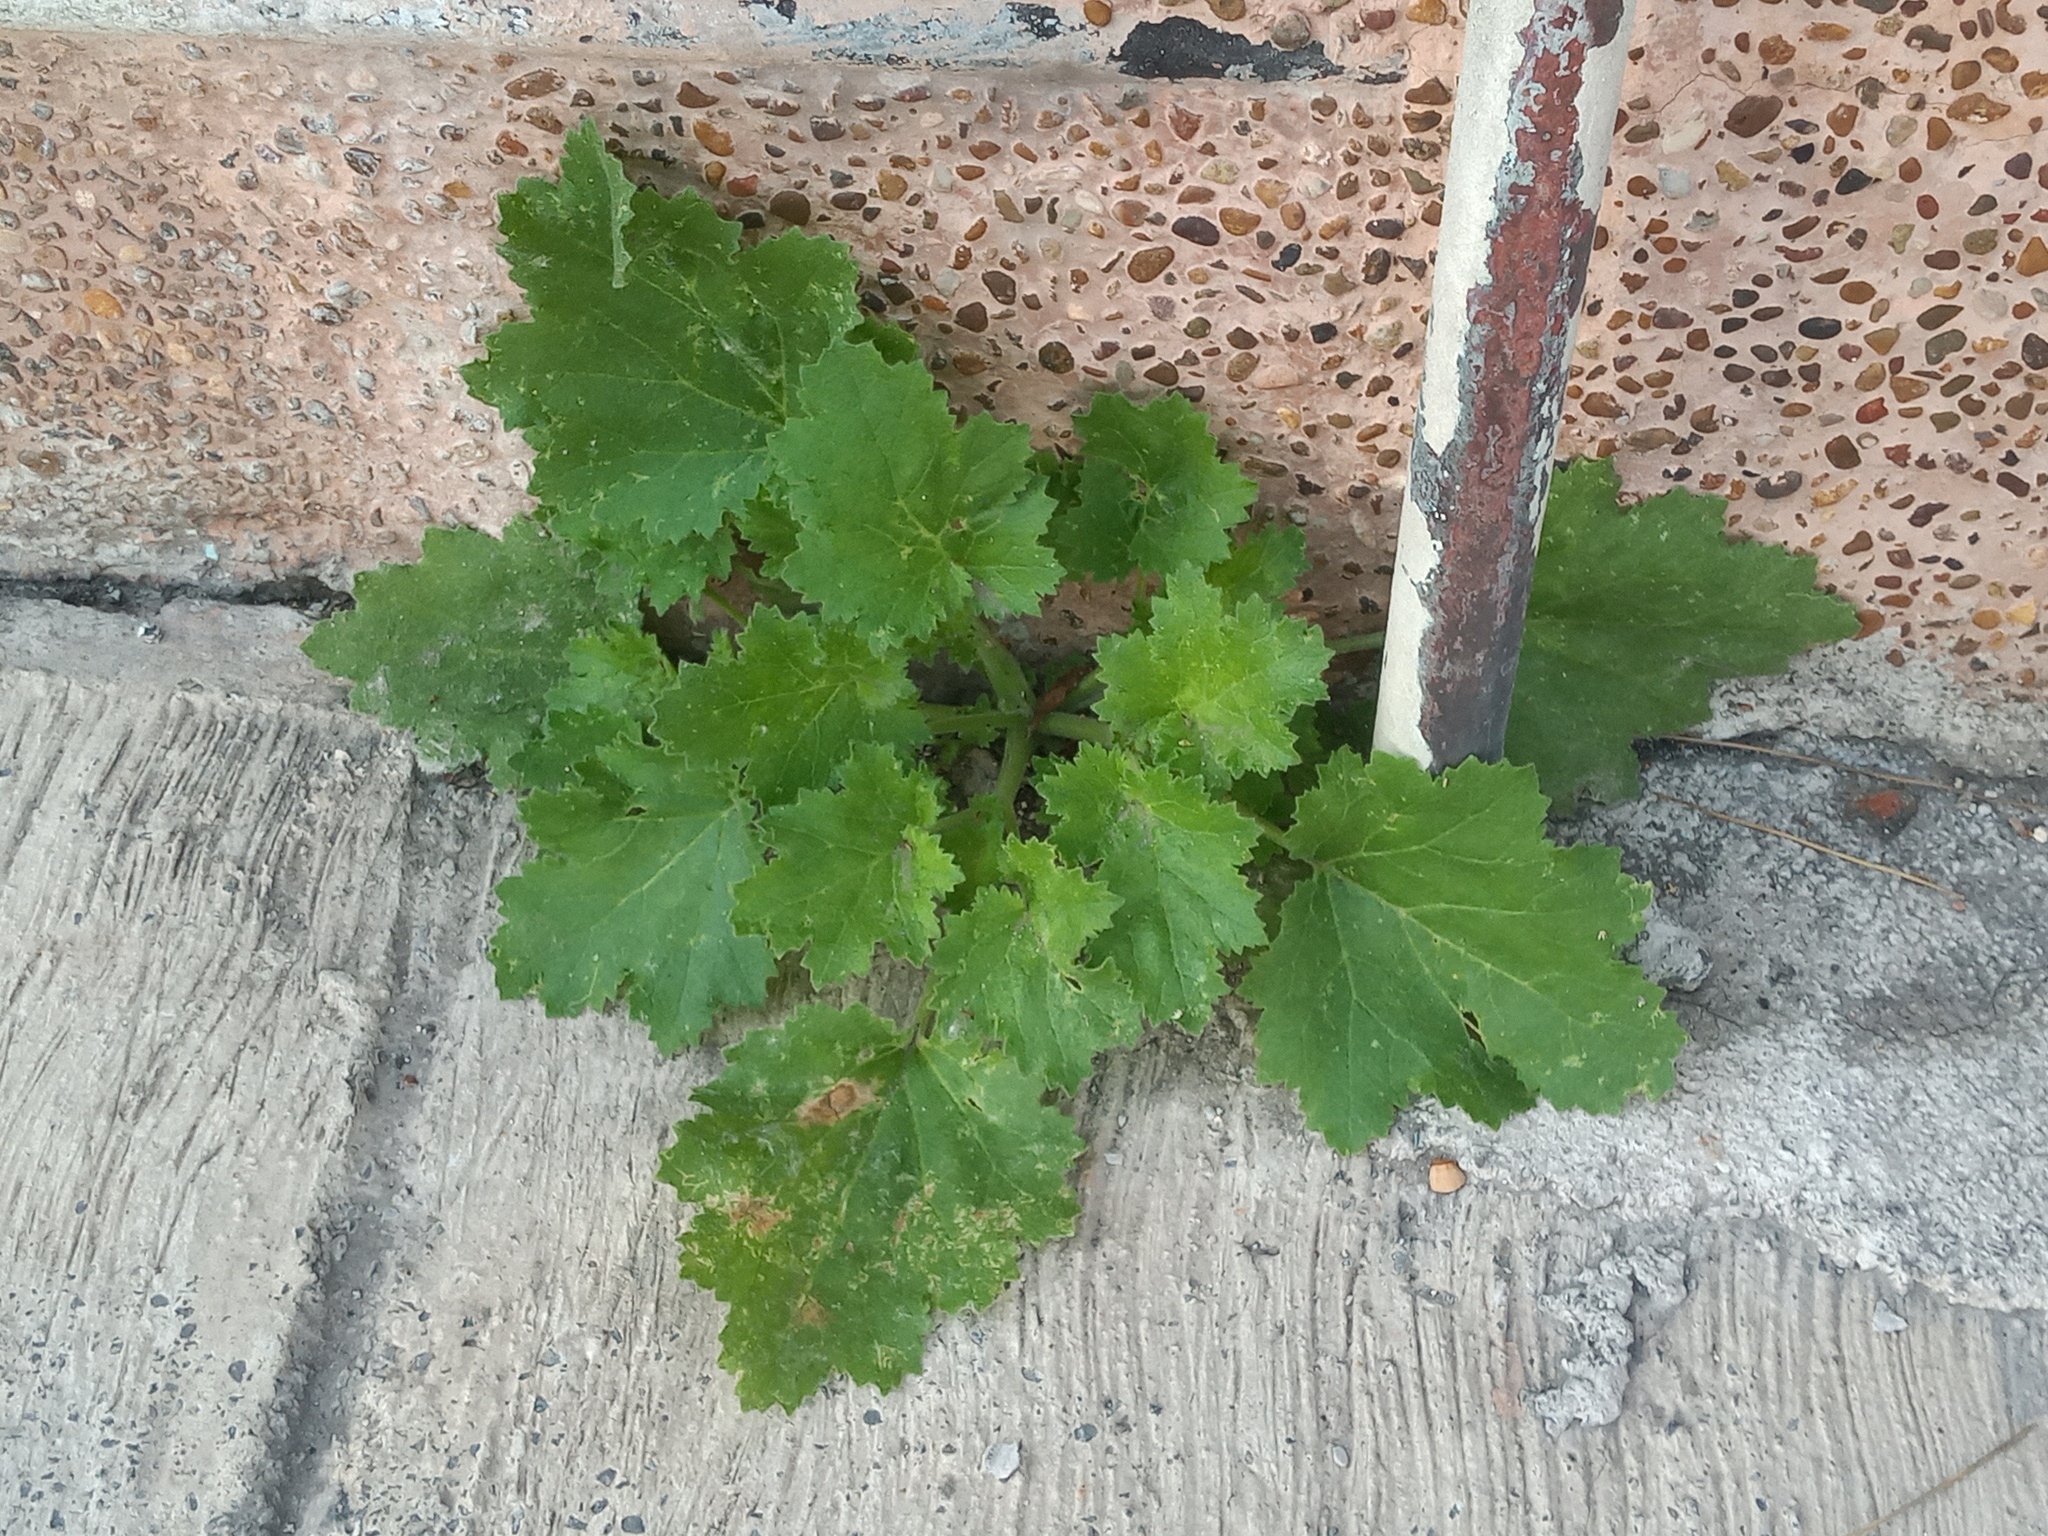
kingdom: Plantae
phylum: Tracheophyta
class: Magnoliopsida
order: Cornales
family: Loasaceae
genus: Eucnide
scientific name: Eucnide lobata
